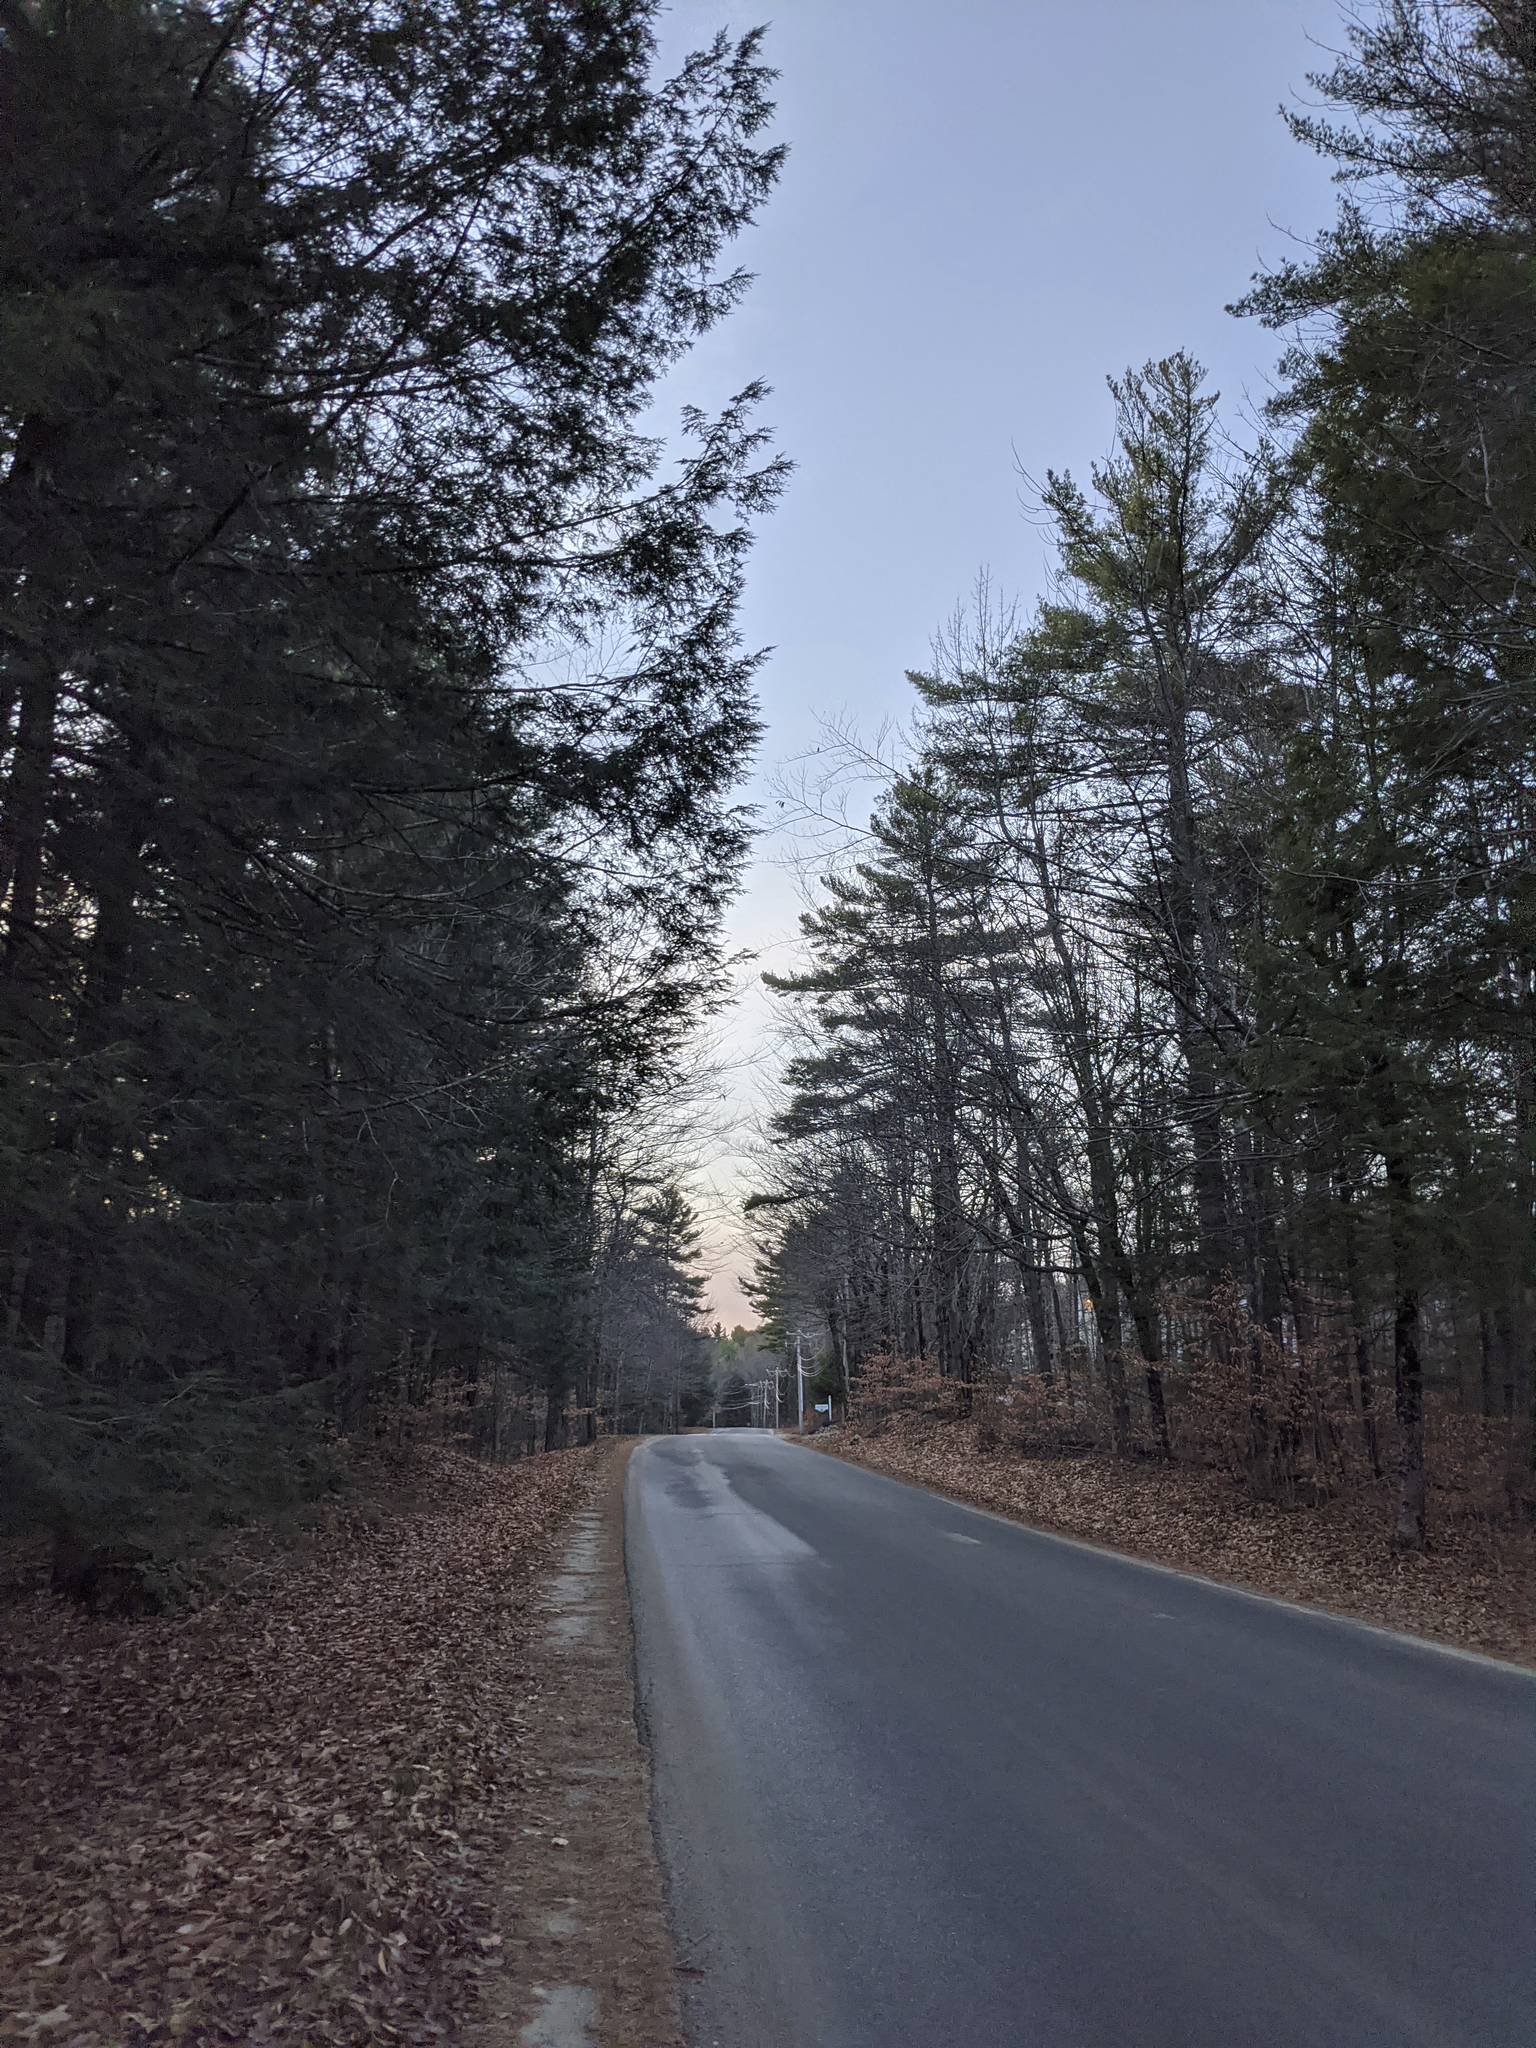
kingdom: Plantae
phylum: Tracheophyta
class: Pinopsida
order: Pinales
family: Pinaceae
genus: Pinus
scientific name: Pinus strobus
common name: Weymouth pine
